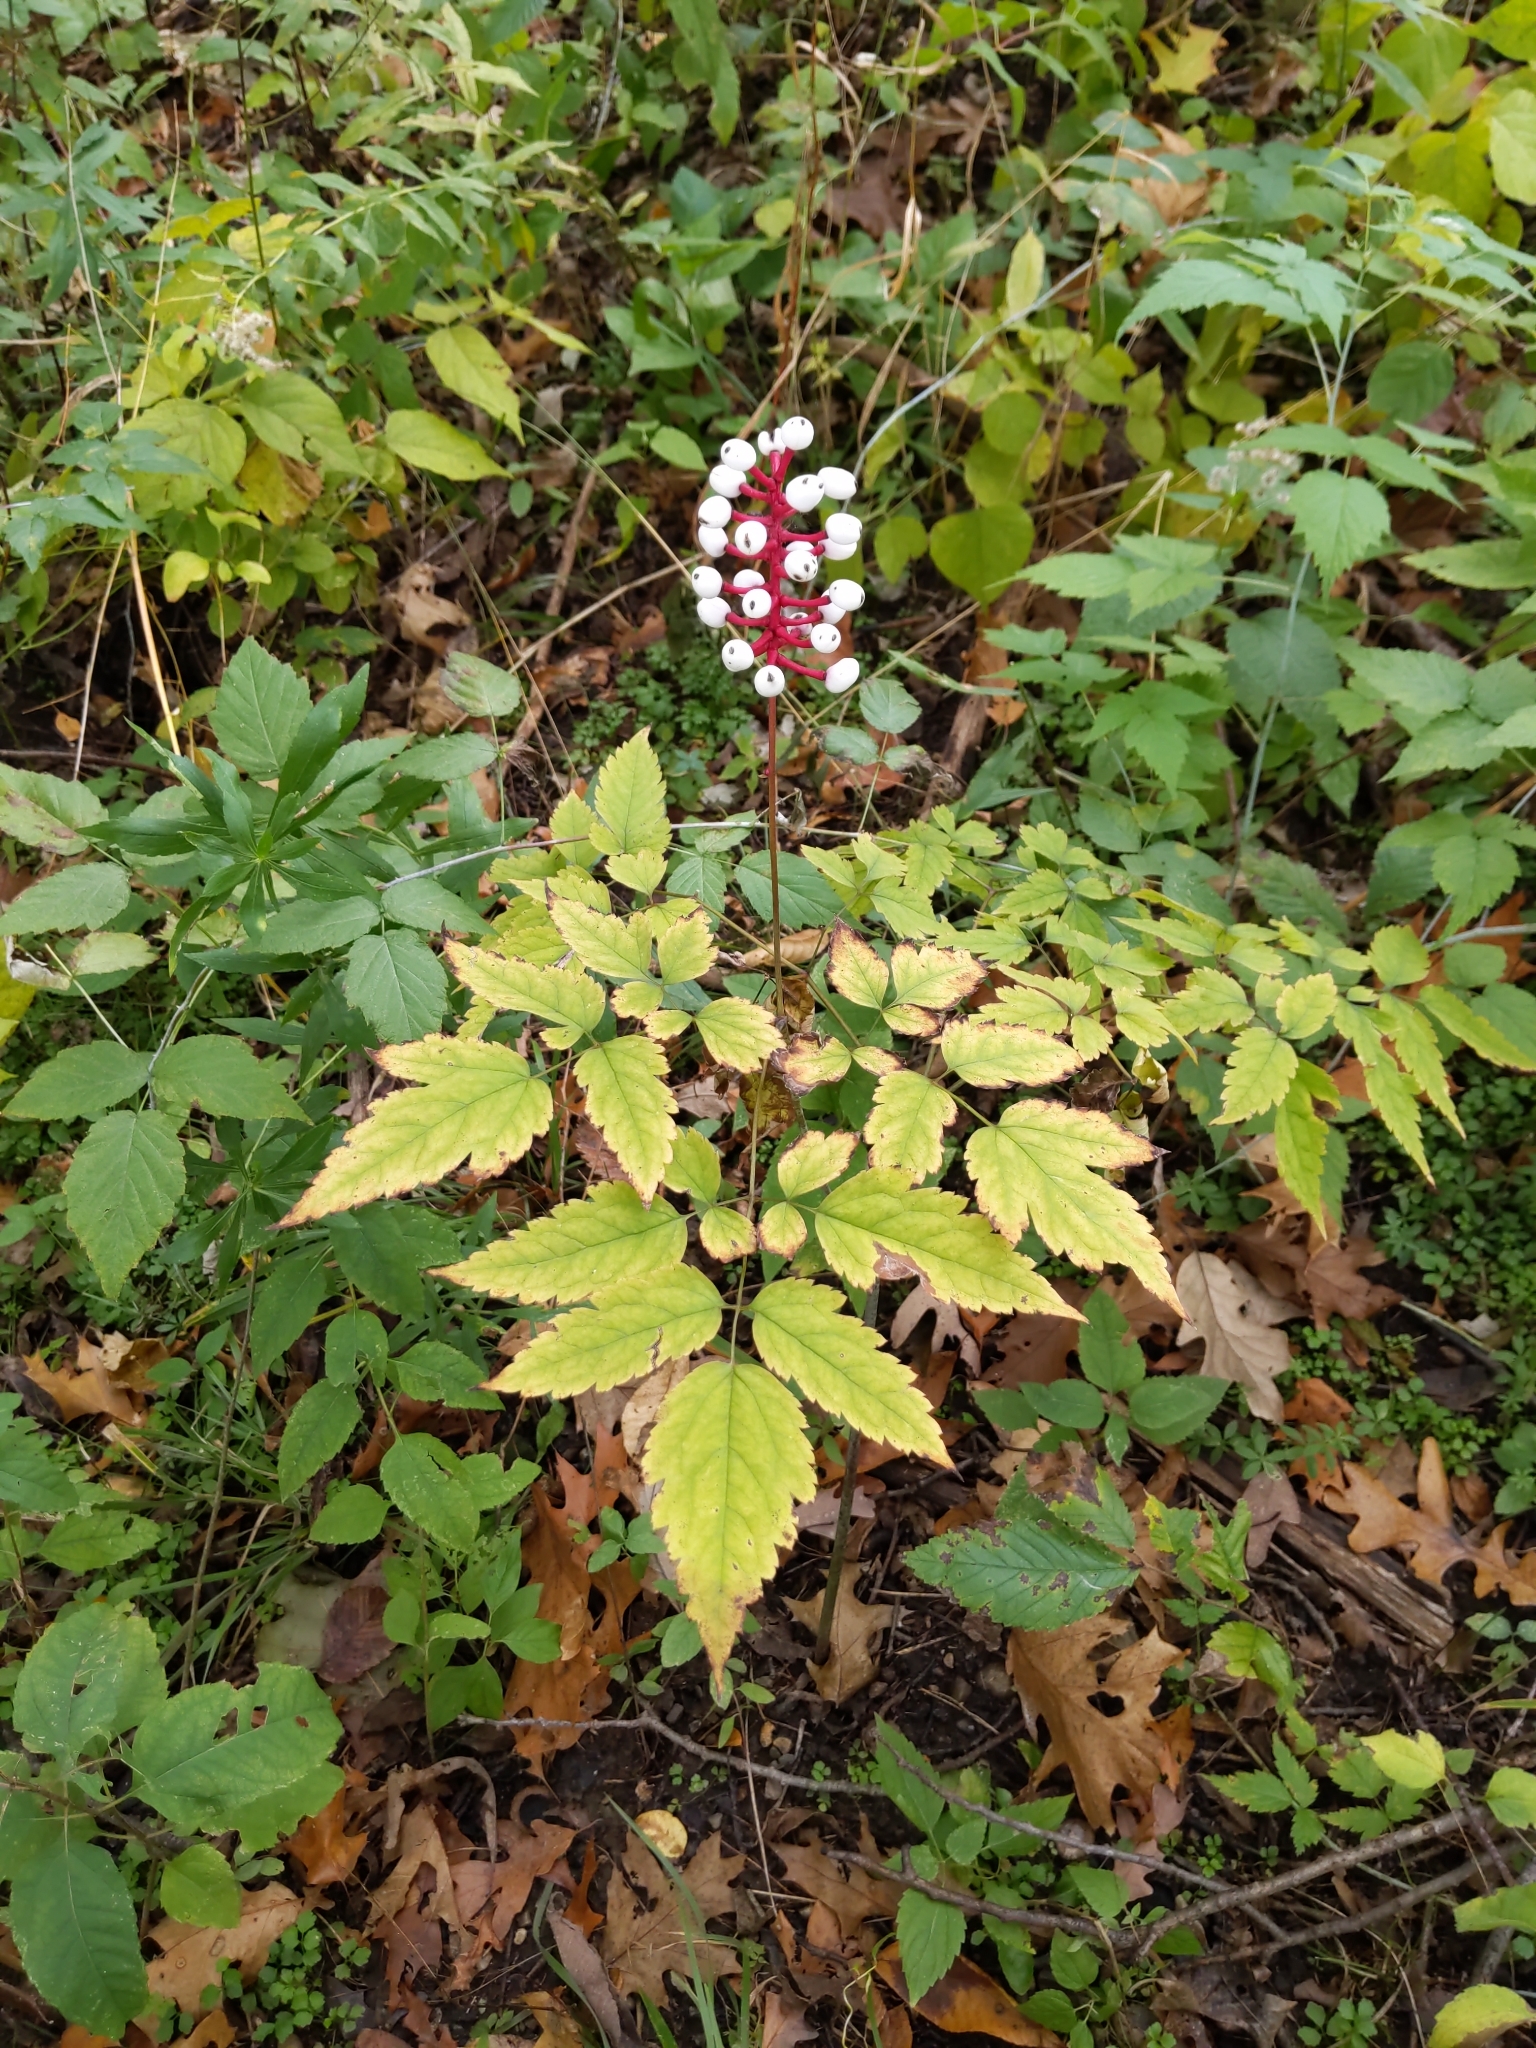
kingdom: Plantae
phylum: Tracheophyta
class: Magnoliopsida
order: Ranunculales
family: Ranunculaceae
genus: Actaea
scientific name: Actaea pachypoda
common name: Doll's-eyes
